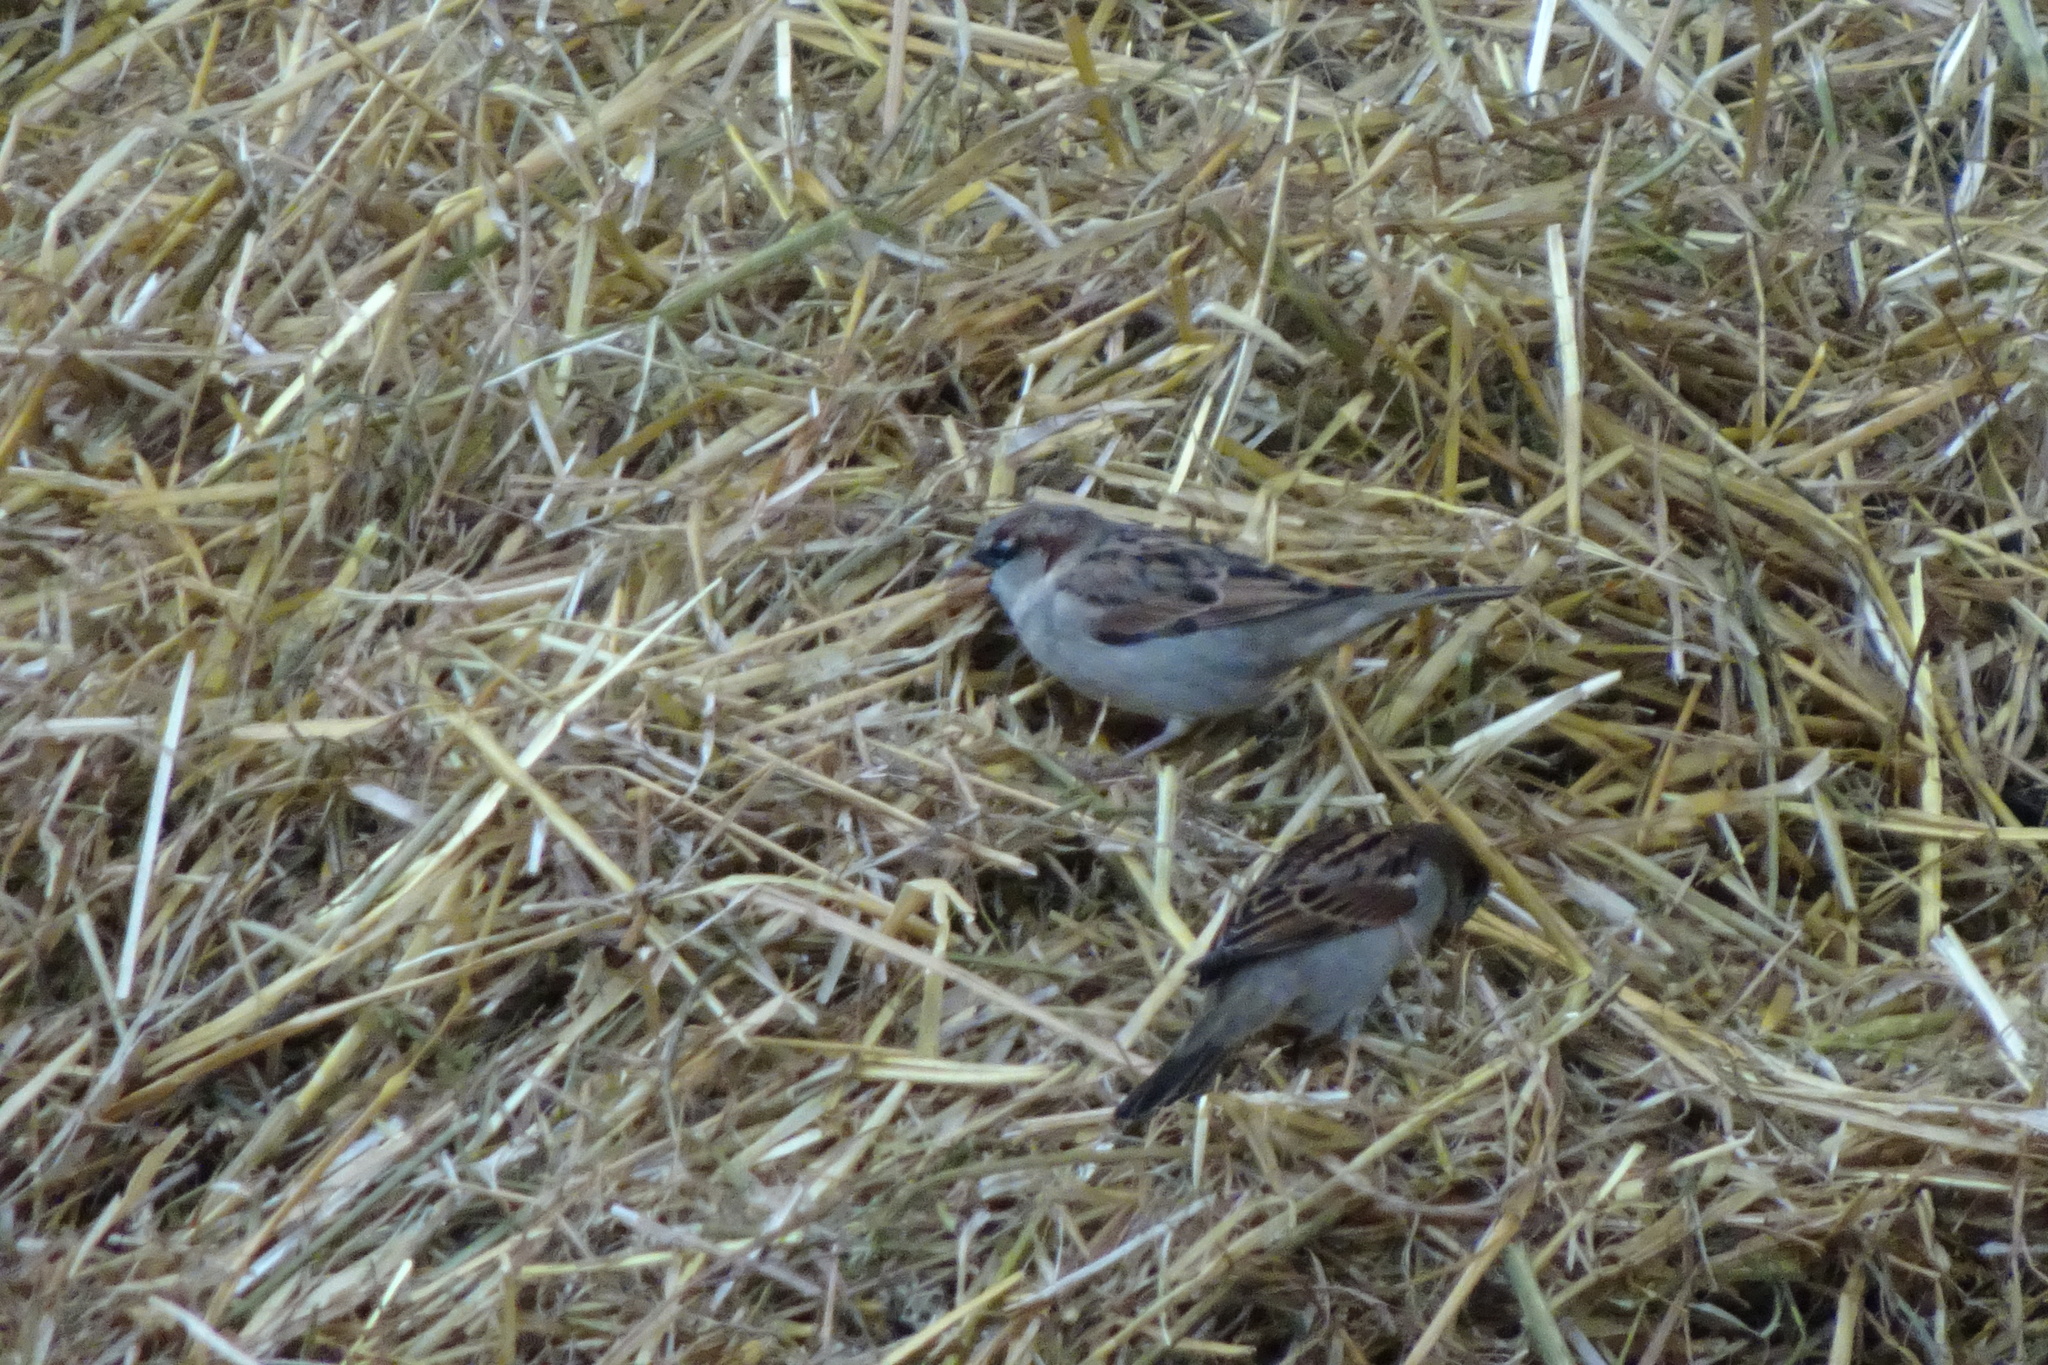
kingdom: Animalia
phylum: Chordata
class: Aves
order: Passeriformes
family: Passeridae
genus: Passer
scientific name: Passer domesticus
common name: House sparrow
